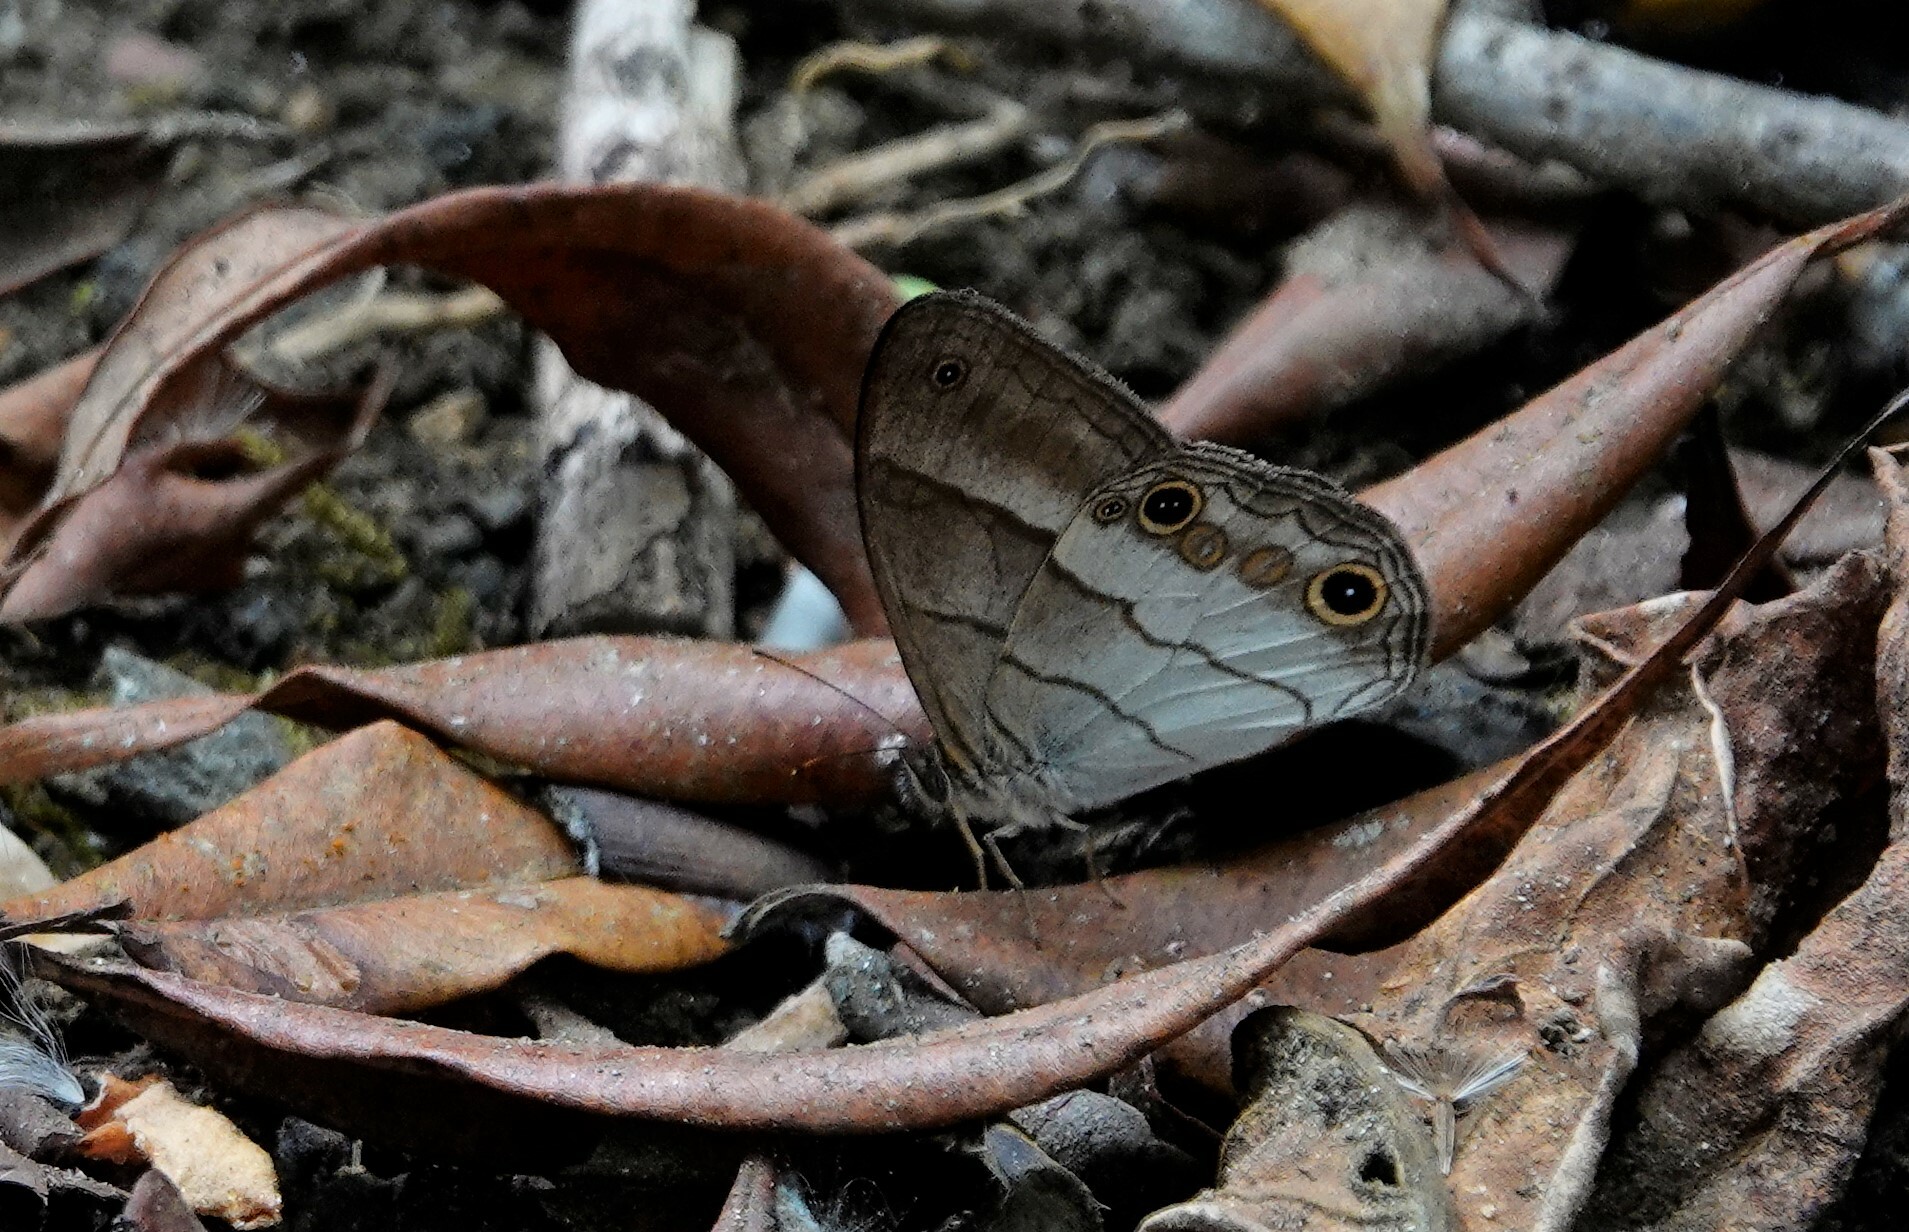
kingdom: Animalia
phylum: Arthropoda
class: Insecta
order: Lepidoptera
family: Nymphalidae
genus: Euptychoides
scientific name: Euptychoides saturnus
